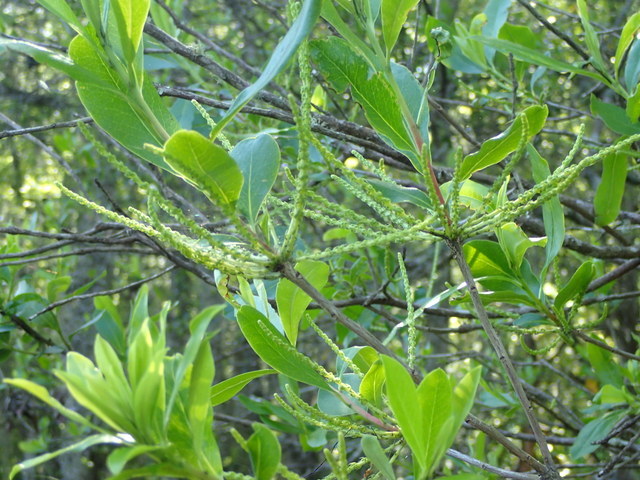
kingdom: Plantae
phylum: Tracheophyta
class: Magnoliopsida
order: Ericales
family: Cyrillaceae
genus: Cyrilla
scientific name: Cyrilla racemiflora
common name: Black titi
